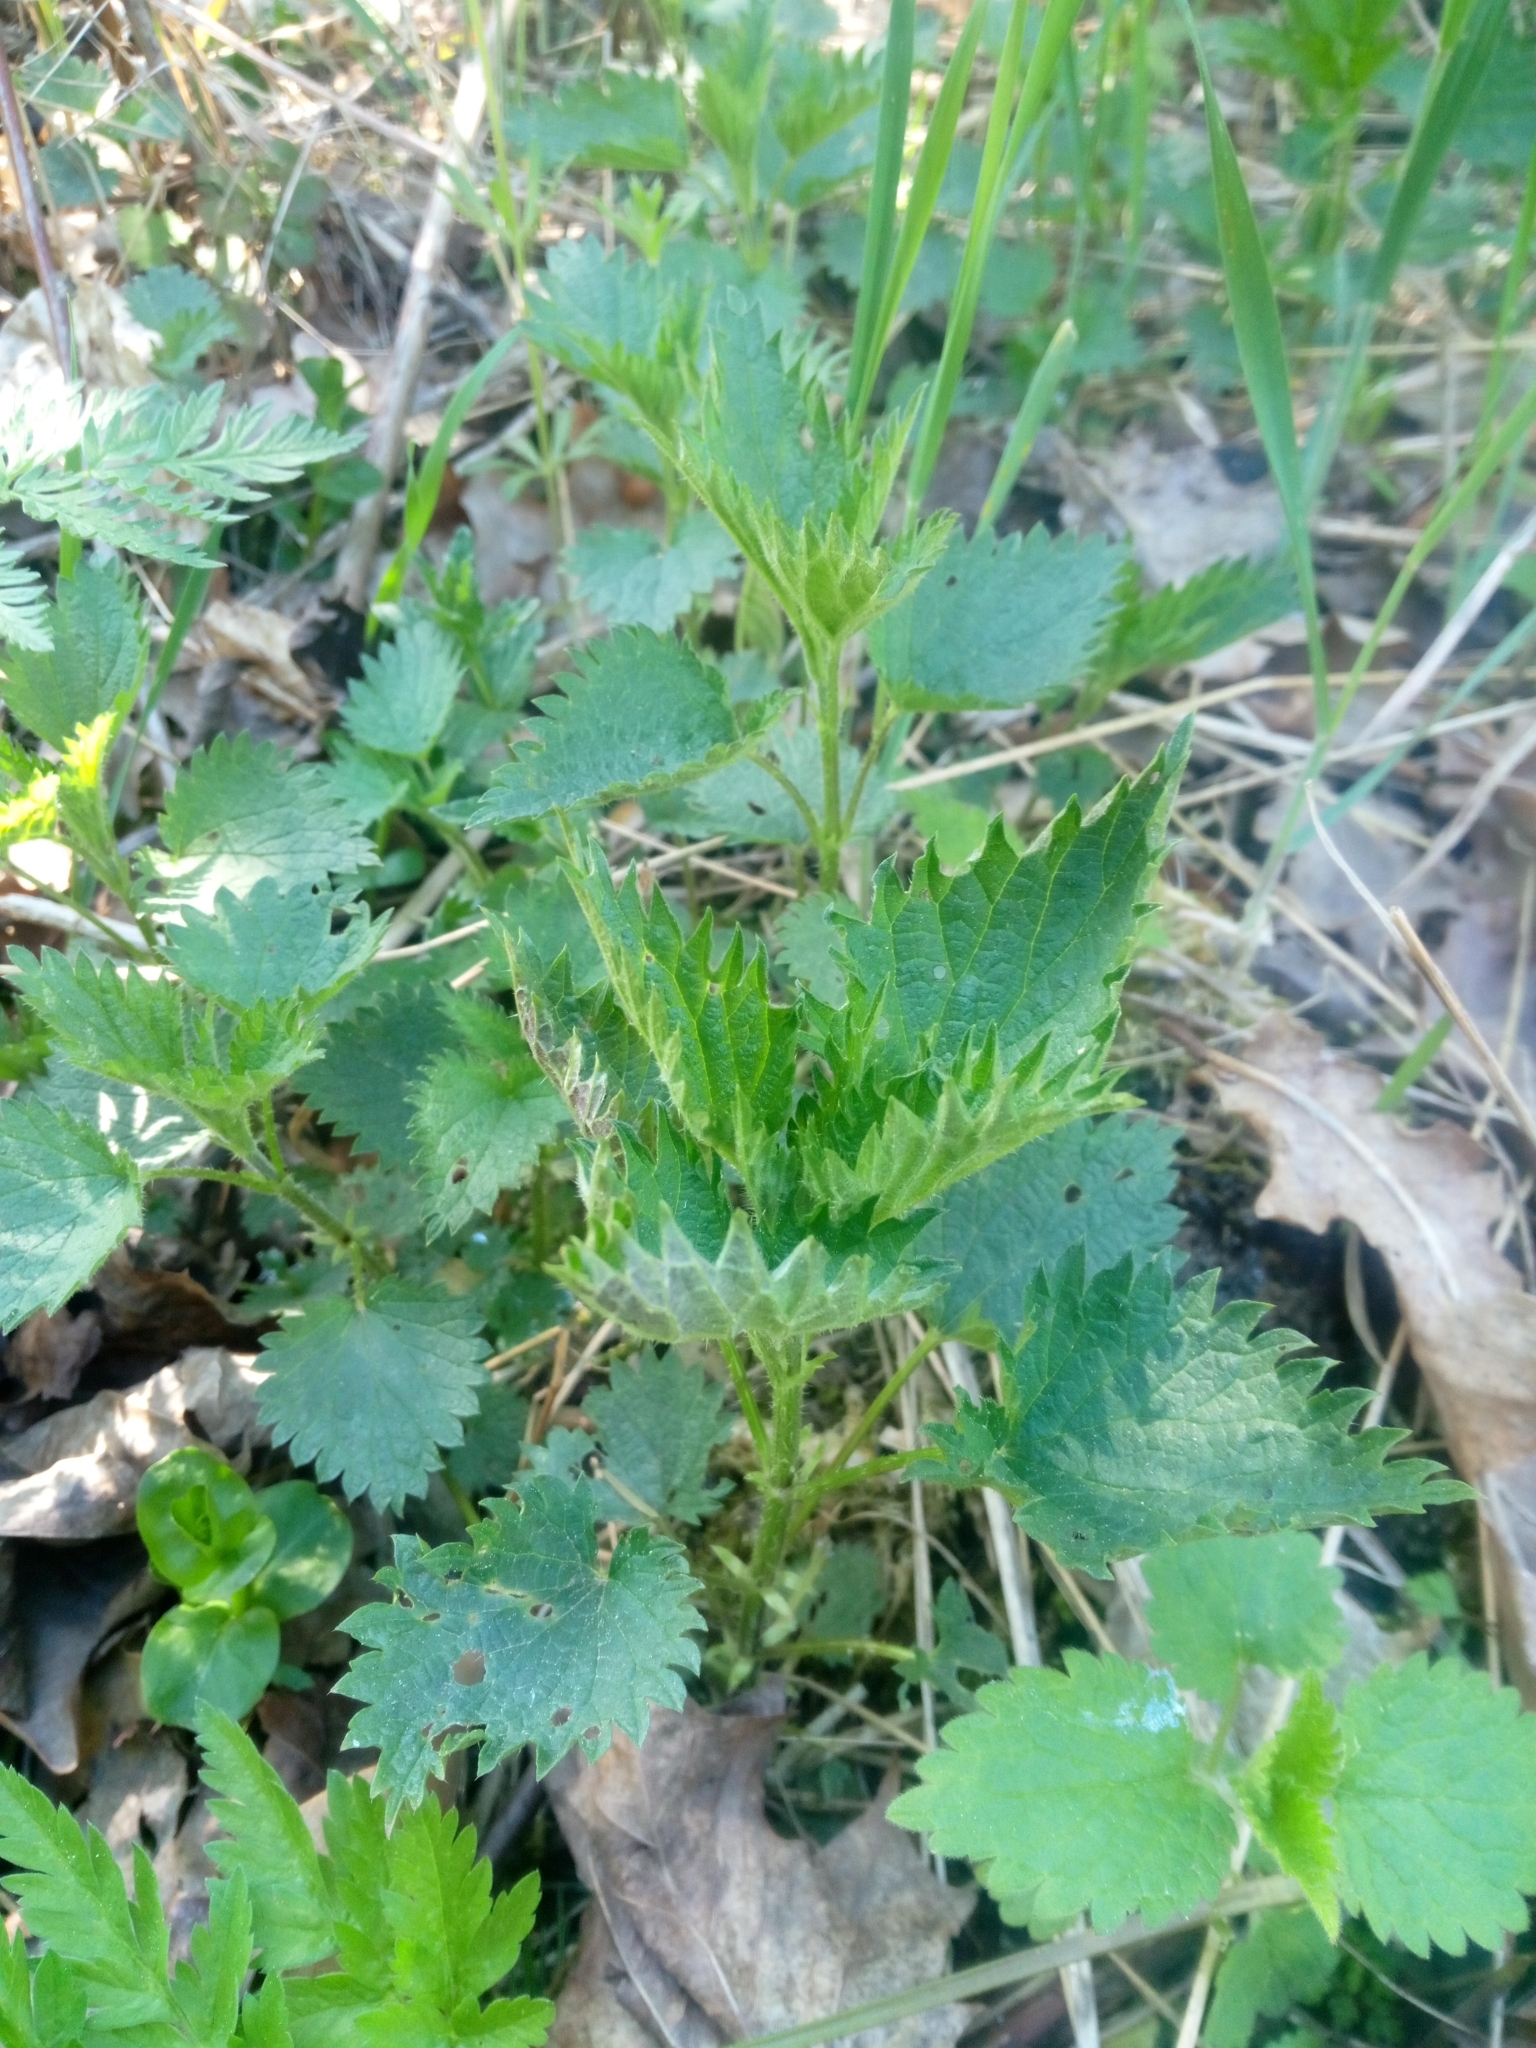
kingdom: Plantae
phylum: Tracheophyta
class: Magnoliopsida
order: Rosales
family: Urticaceae
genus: Urtica
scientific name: Urtica dioica
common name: Common nettle
